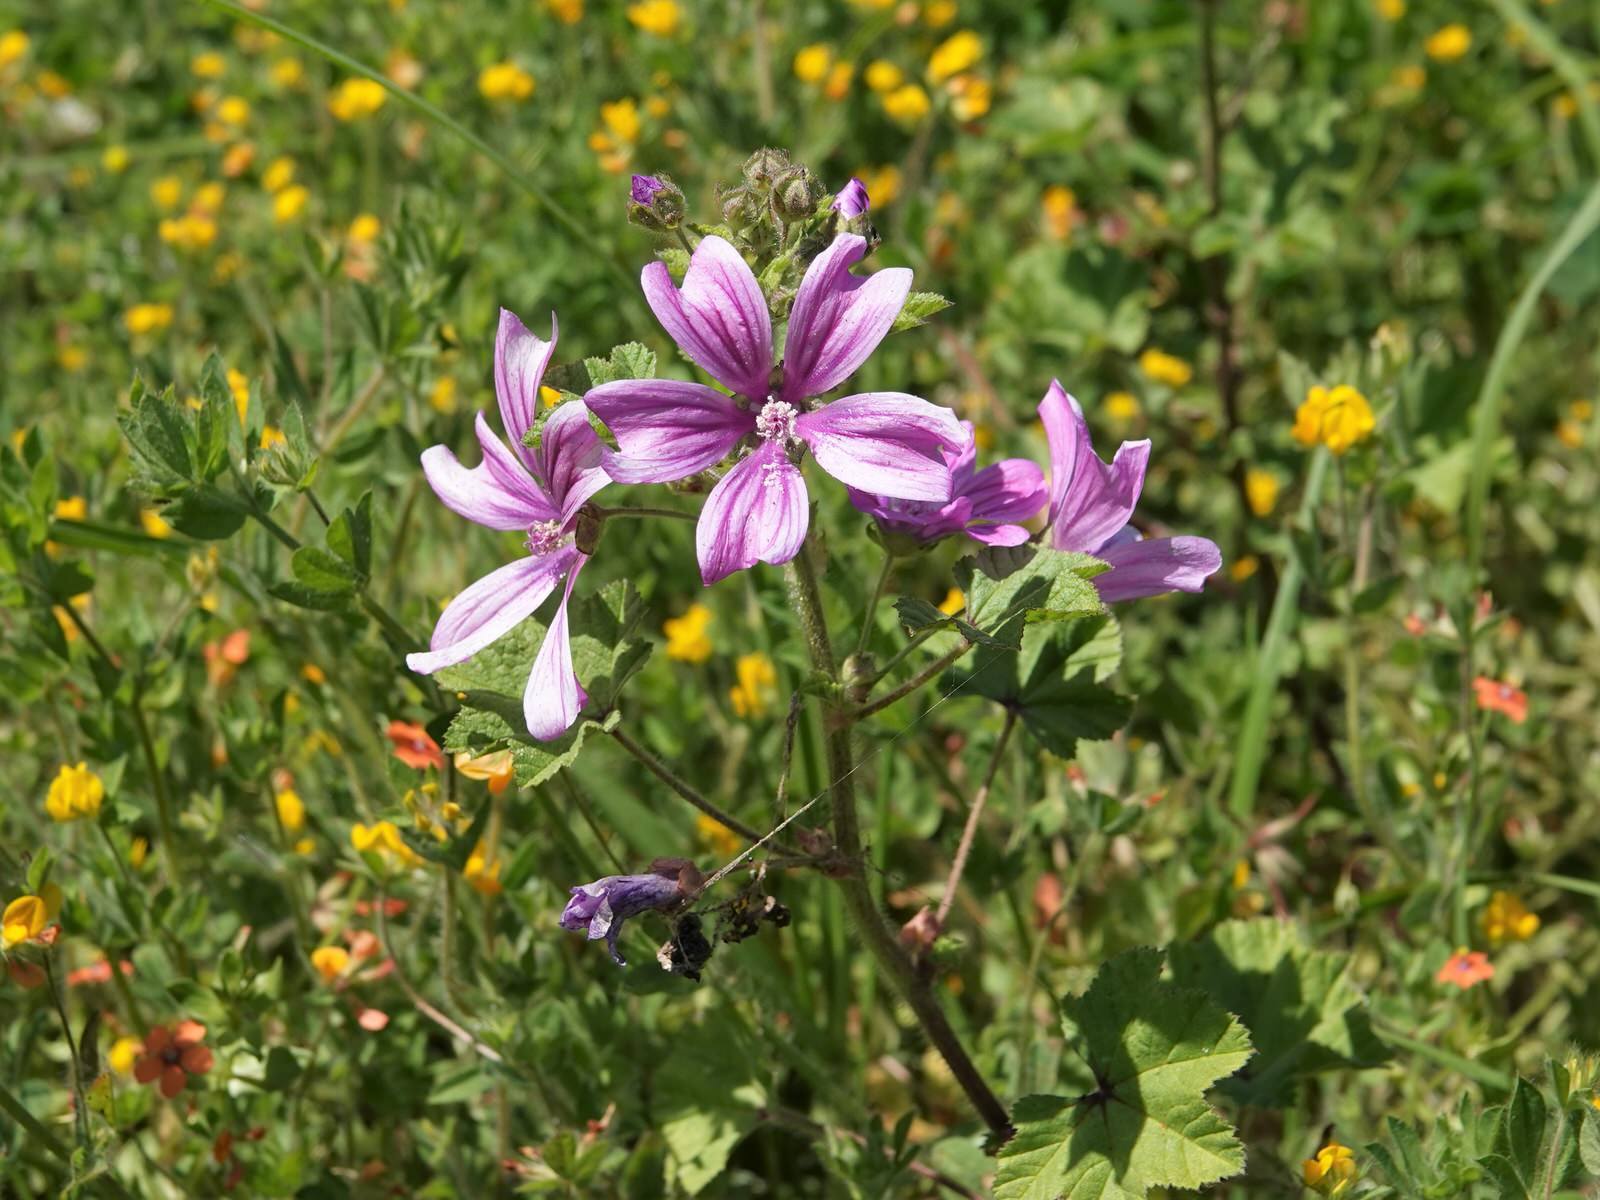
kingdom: Plantae
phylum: Tracheophyta
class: Magnoliopsida
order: Malvales
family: Malvaceae
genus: Malva
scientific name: Malva sylvestris
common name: Common mallow
